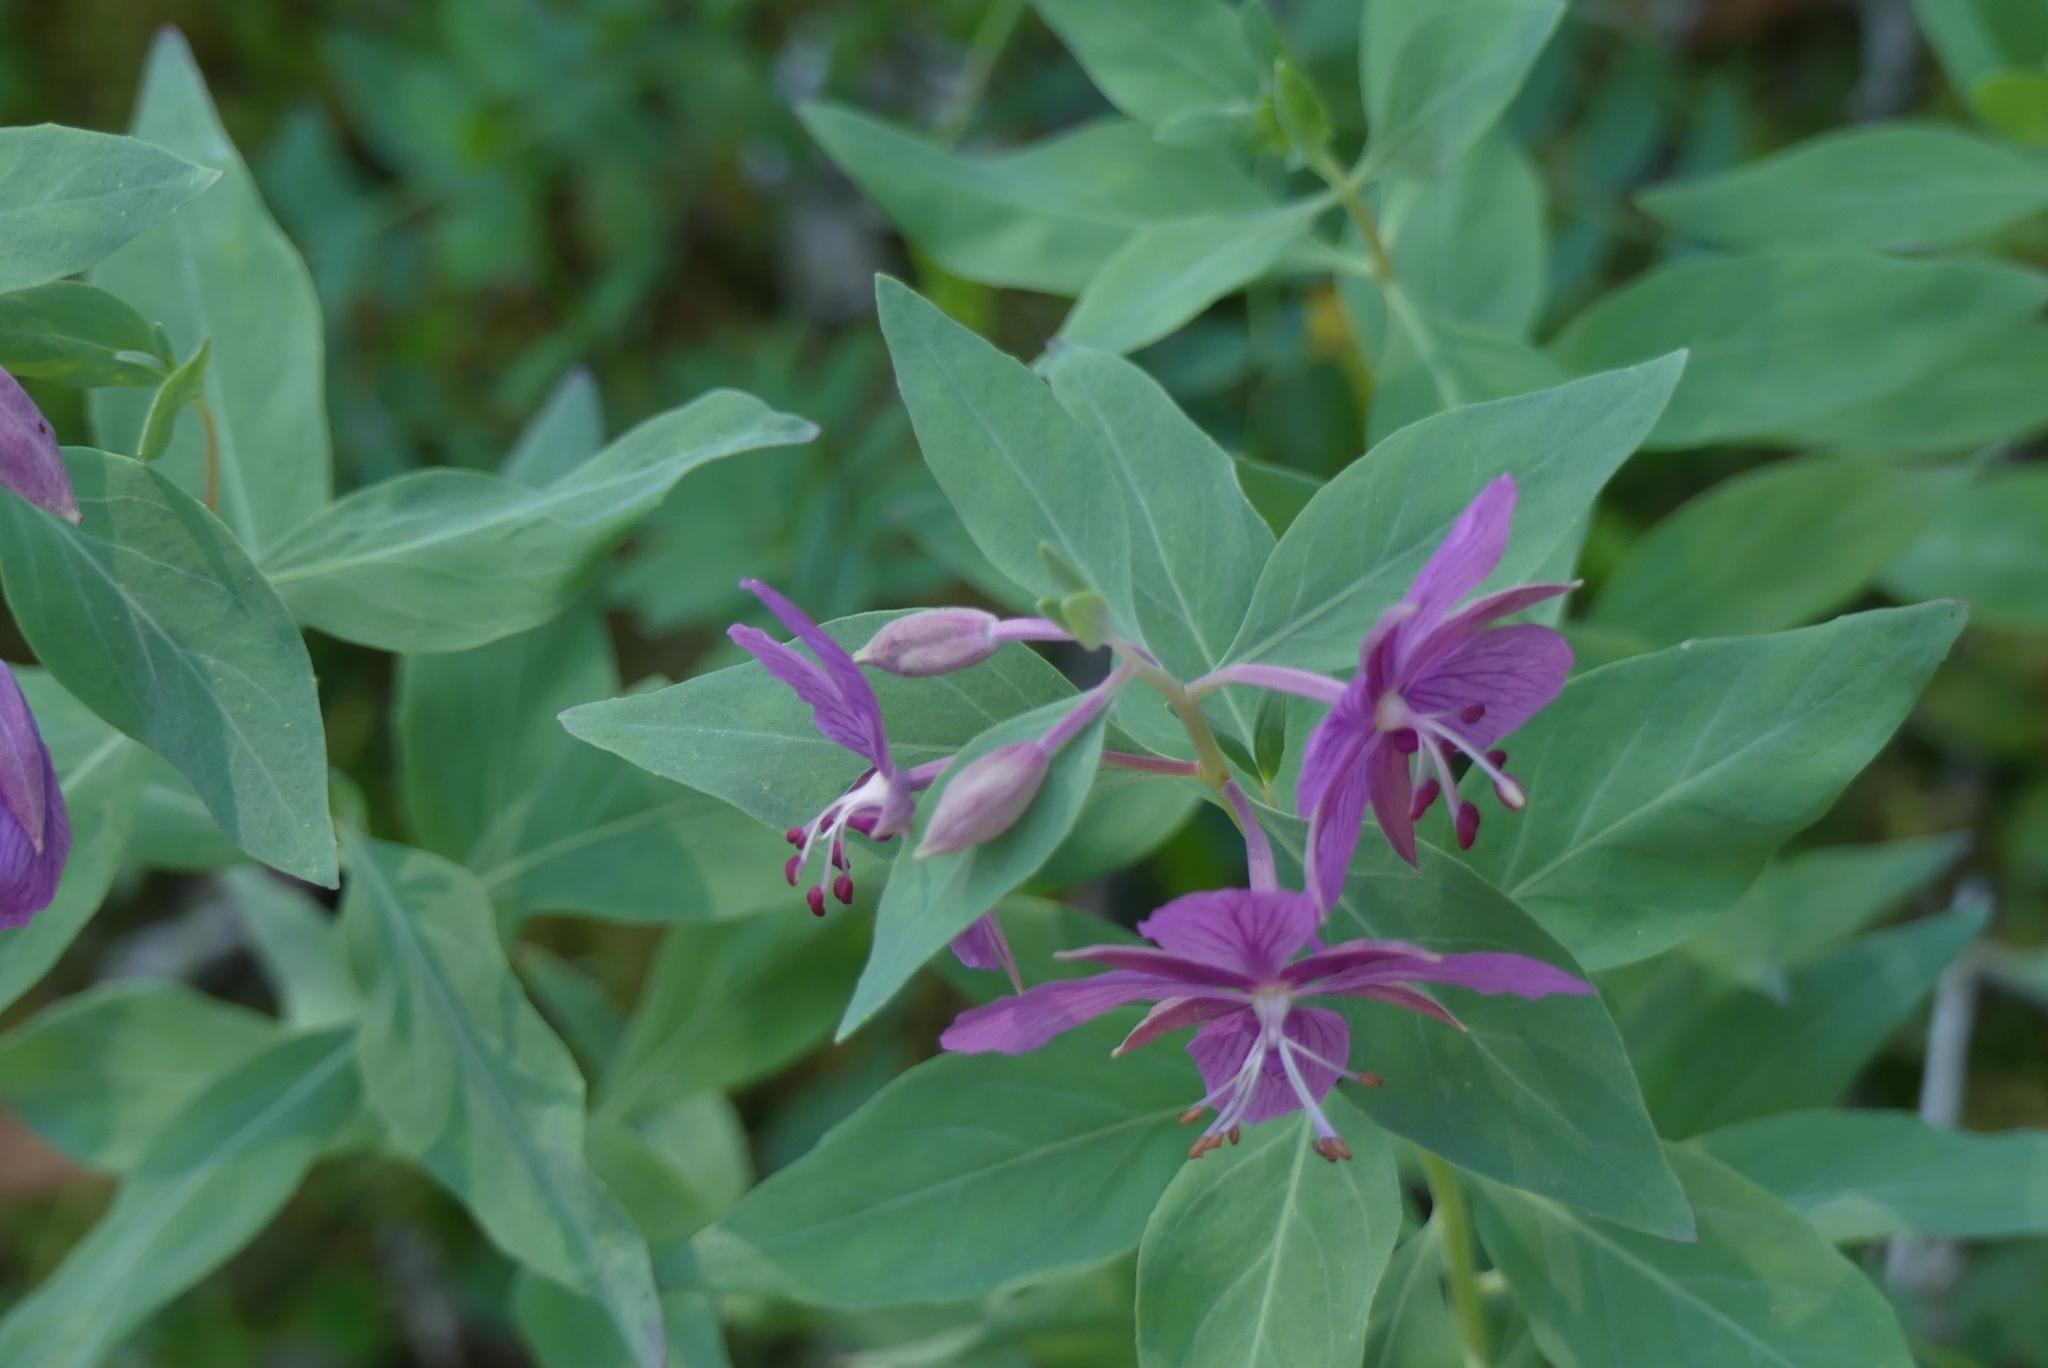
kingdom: Plantae
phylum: Tracheophyta
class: Magnoliopsida
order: Myrtales
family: Onagraceae
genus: Chamaenerion
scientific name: Chamaenerion latifolium
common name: Dwarf fireweed
